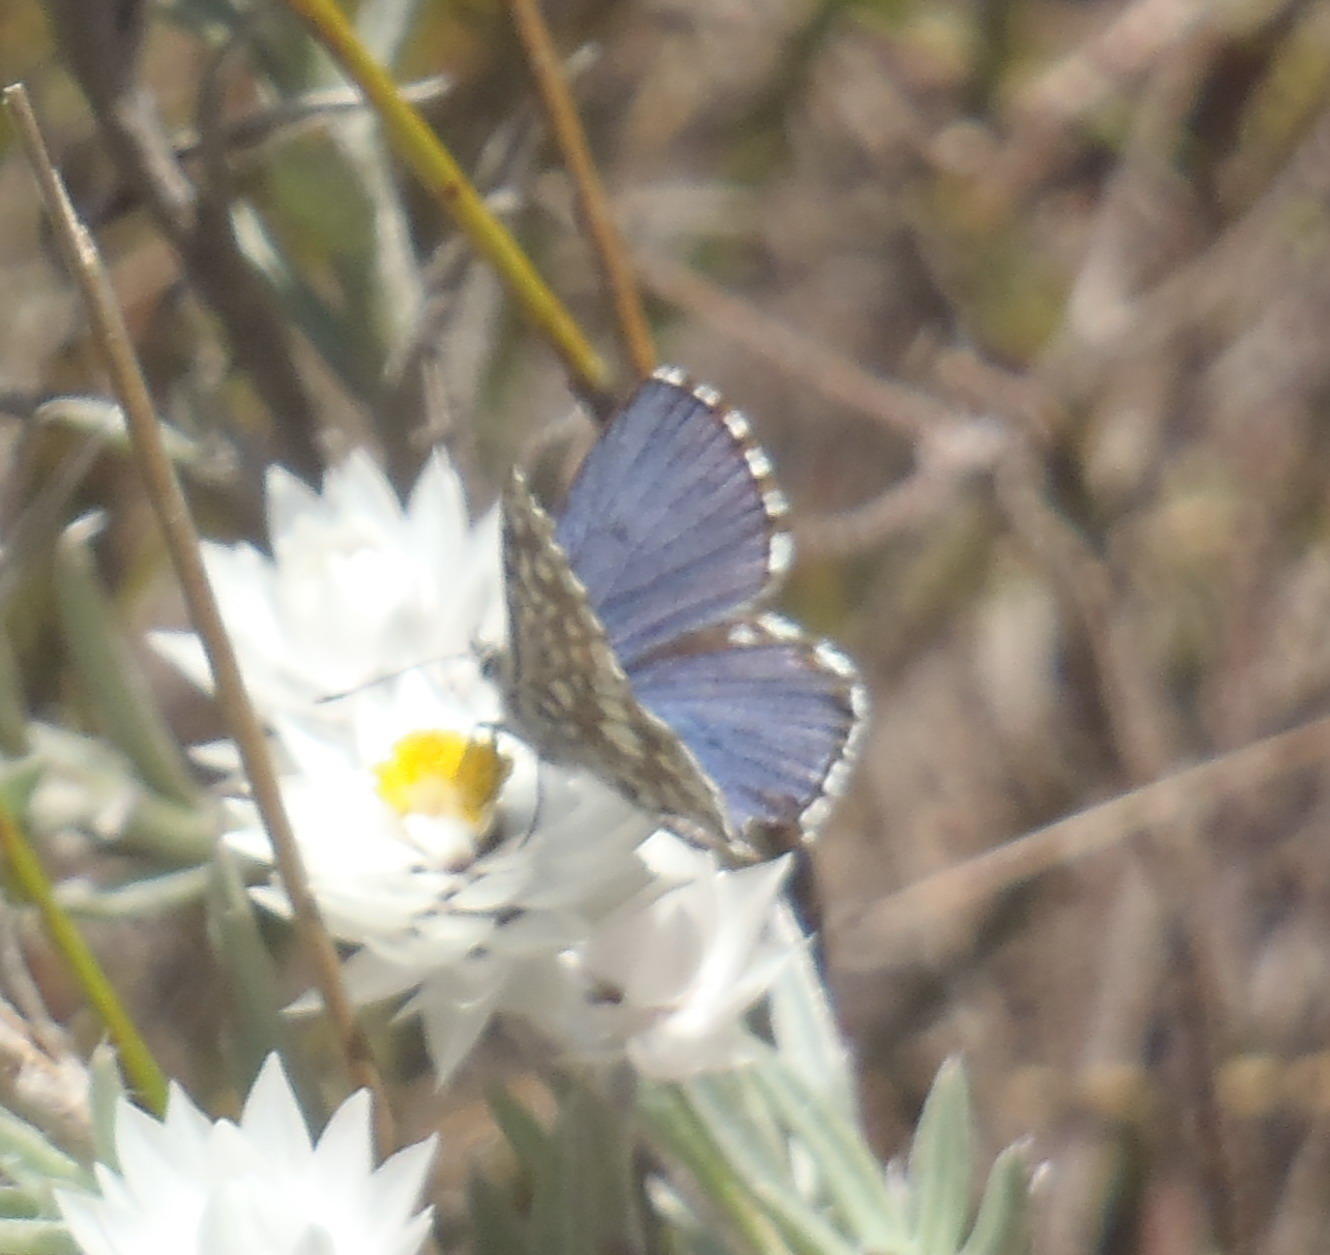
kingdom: Animalia
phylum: Arthropoda
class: Insecta
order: Lepidoptera
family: Lycaenidae
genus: Tarucus
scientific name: Tarucus thespis
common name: Vivid dotted blue
